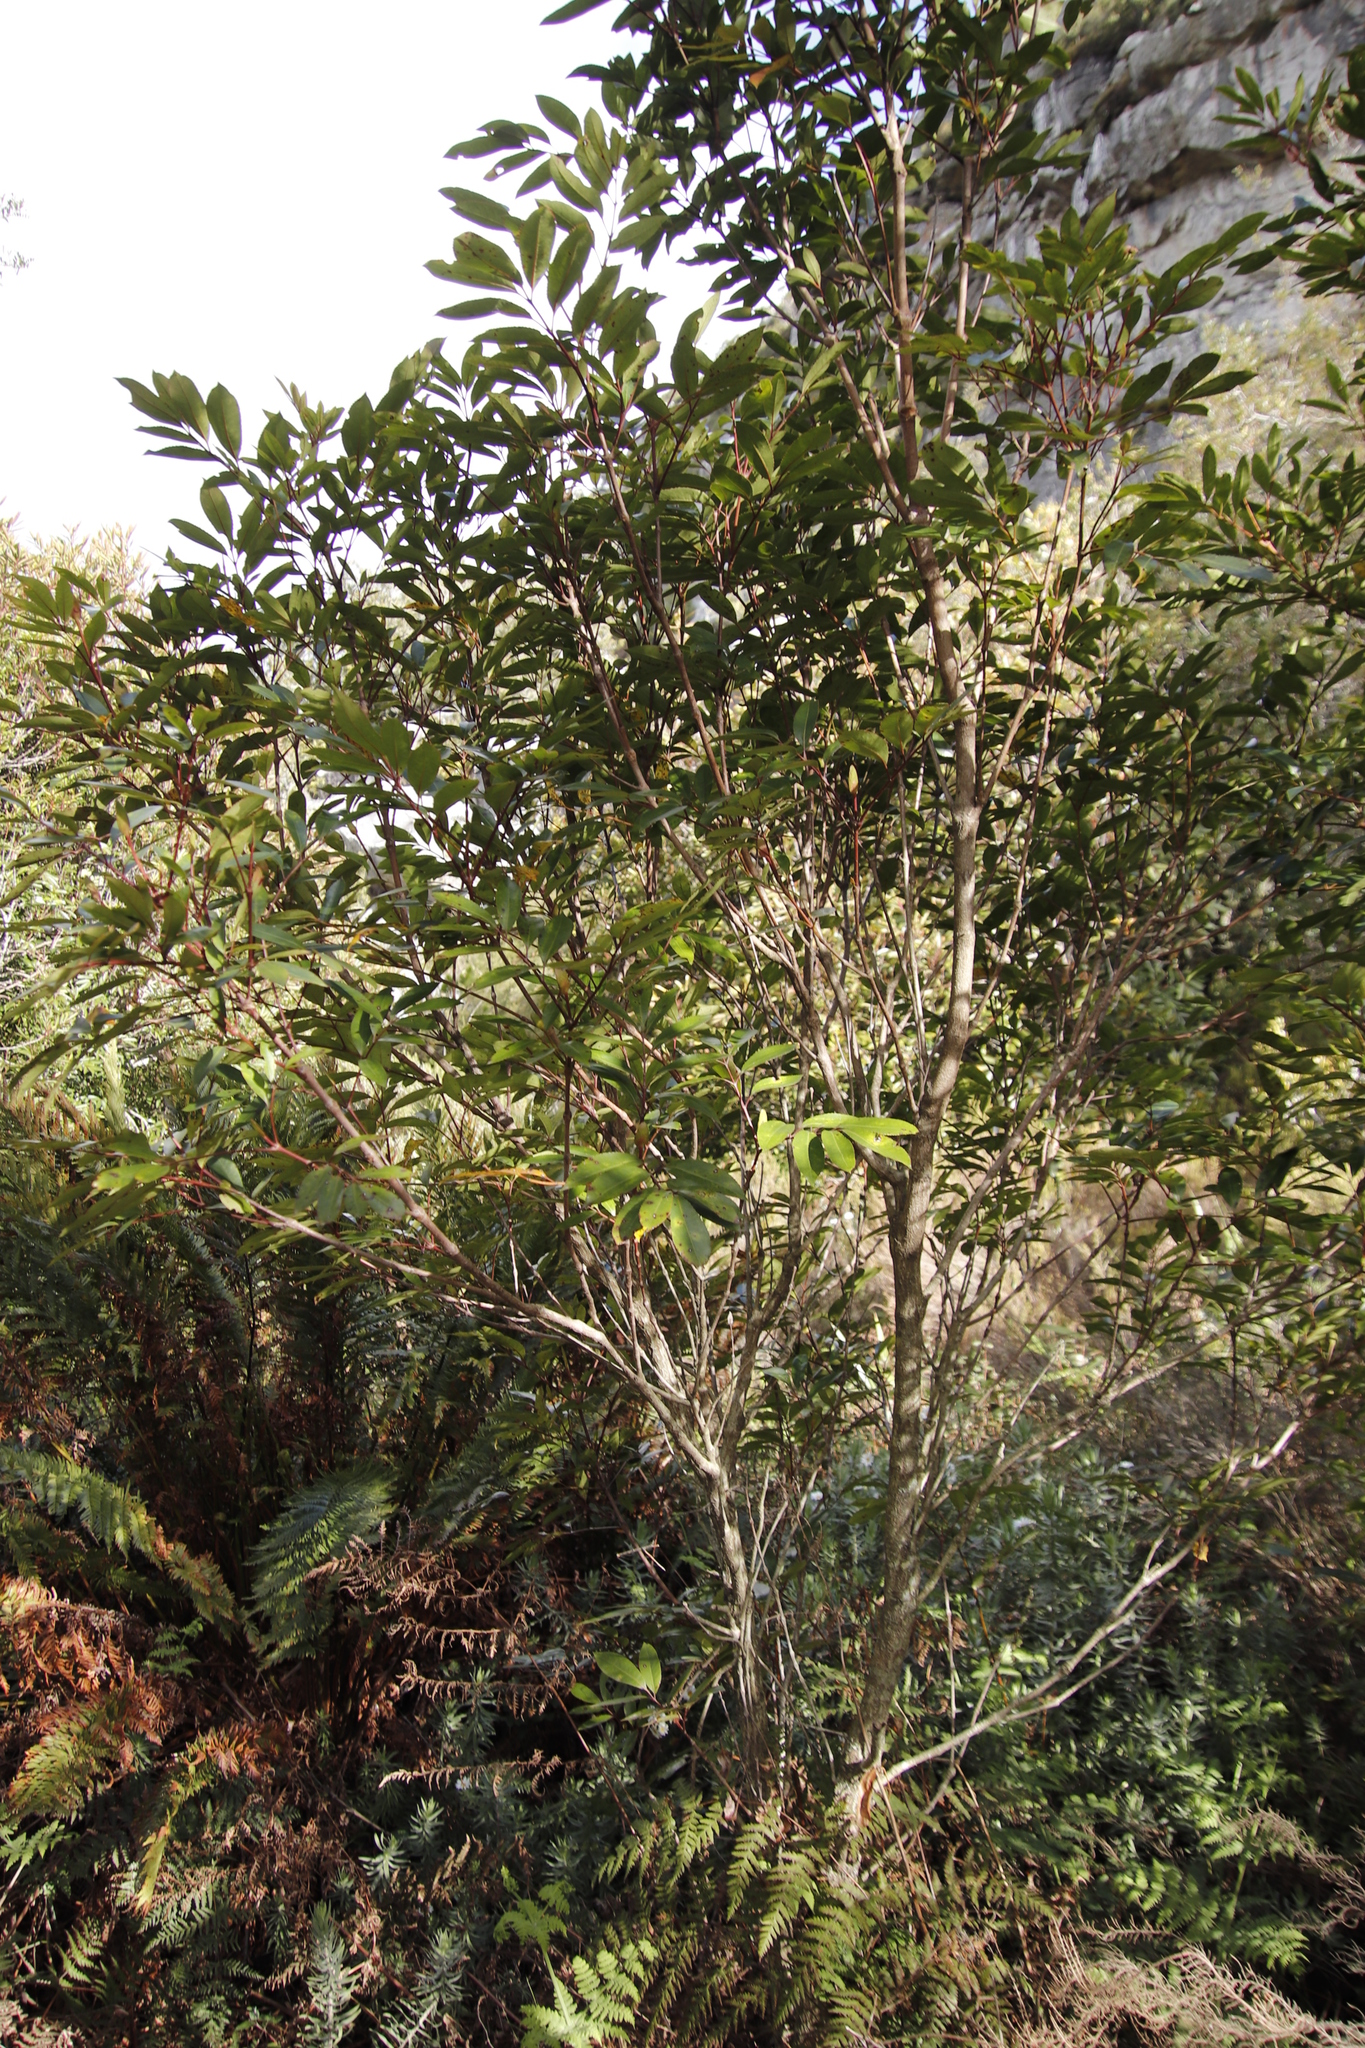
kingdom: Plantae
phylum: Tracheophyta
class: Magnoliopsida
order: Oxalidales
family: Cunoniaceae
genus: Cunonia
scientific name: Cunonia capensis
